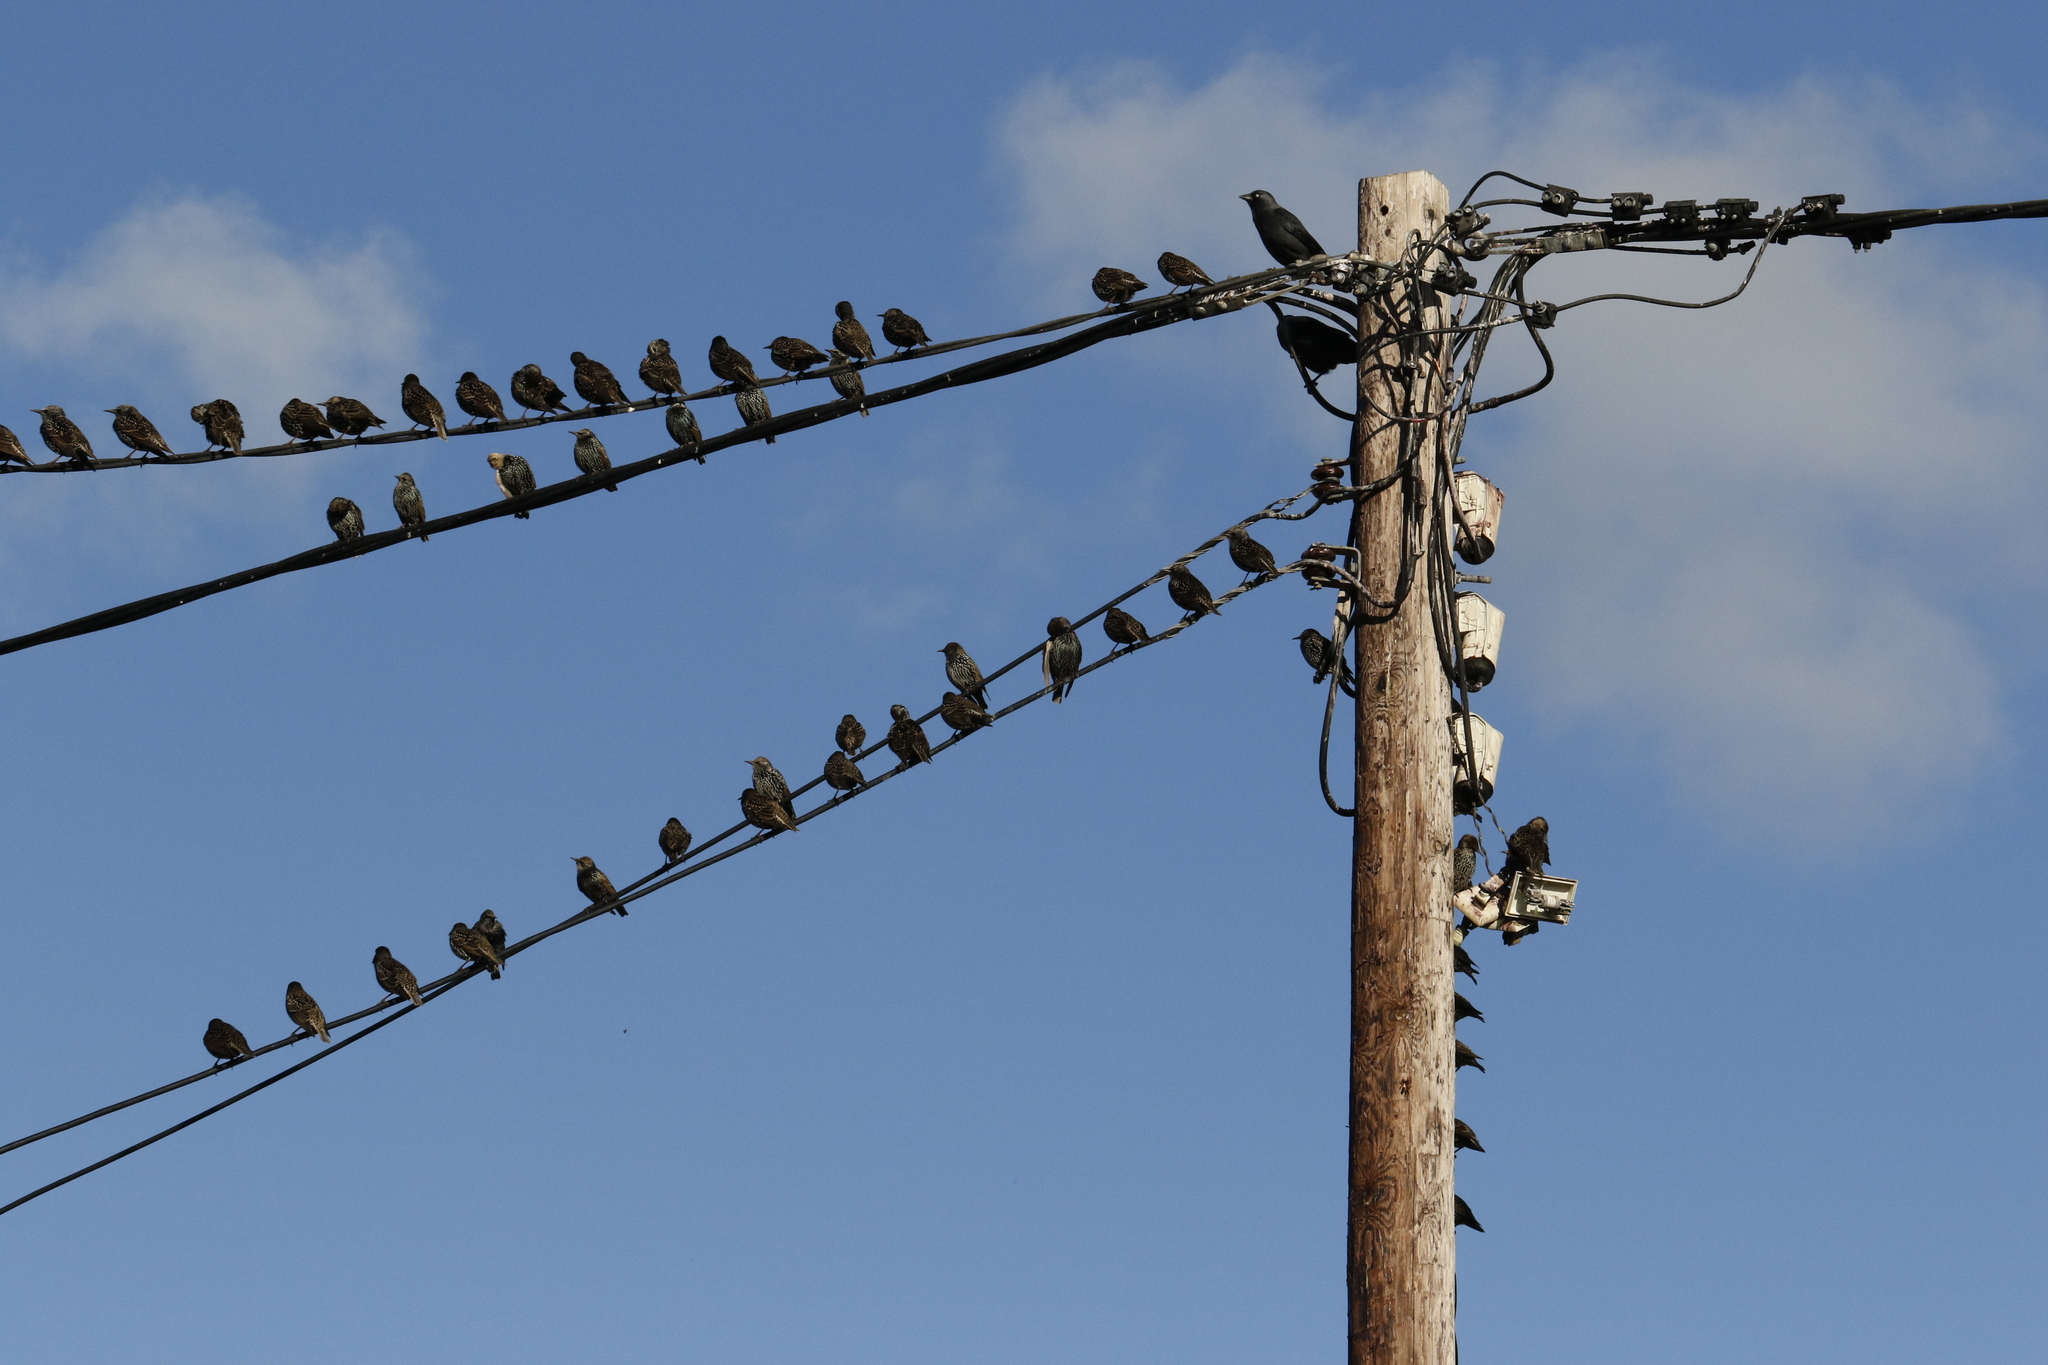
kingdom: Animalia
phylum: Chordata
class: Aves
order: Passeriformes
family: Sturnidae
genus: Sturnus
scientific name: Sturnus vulgaris
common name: Common starling
